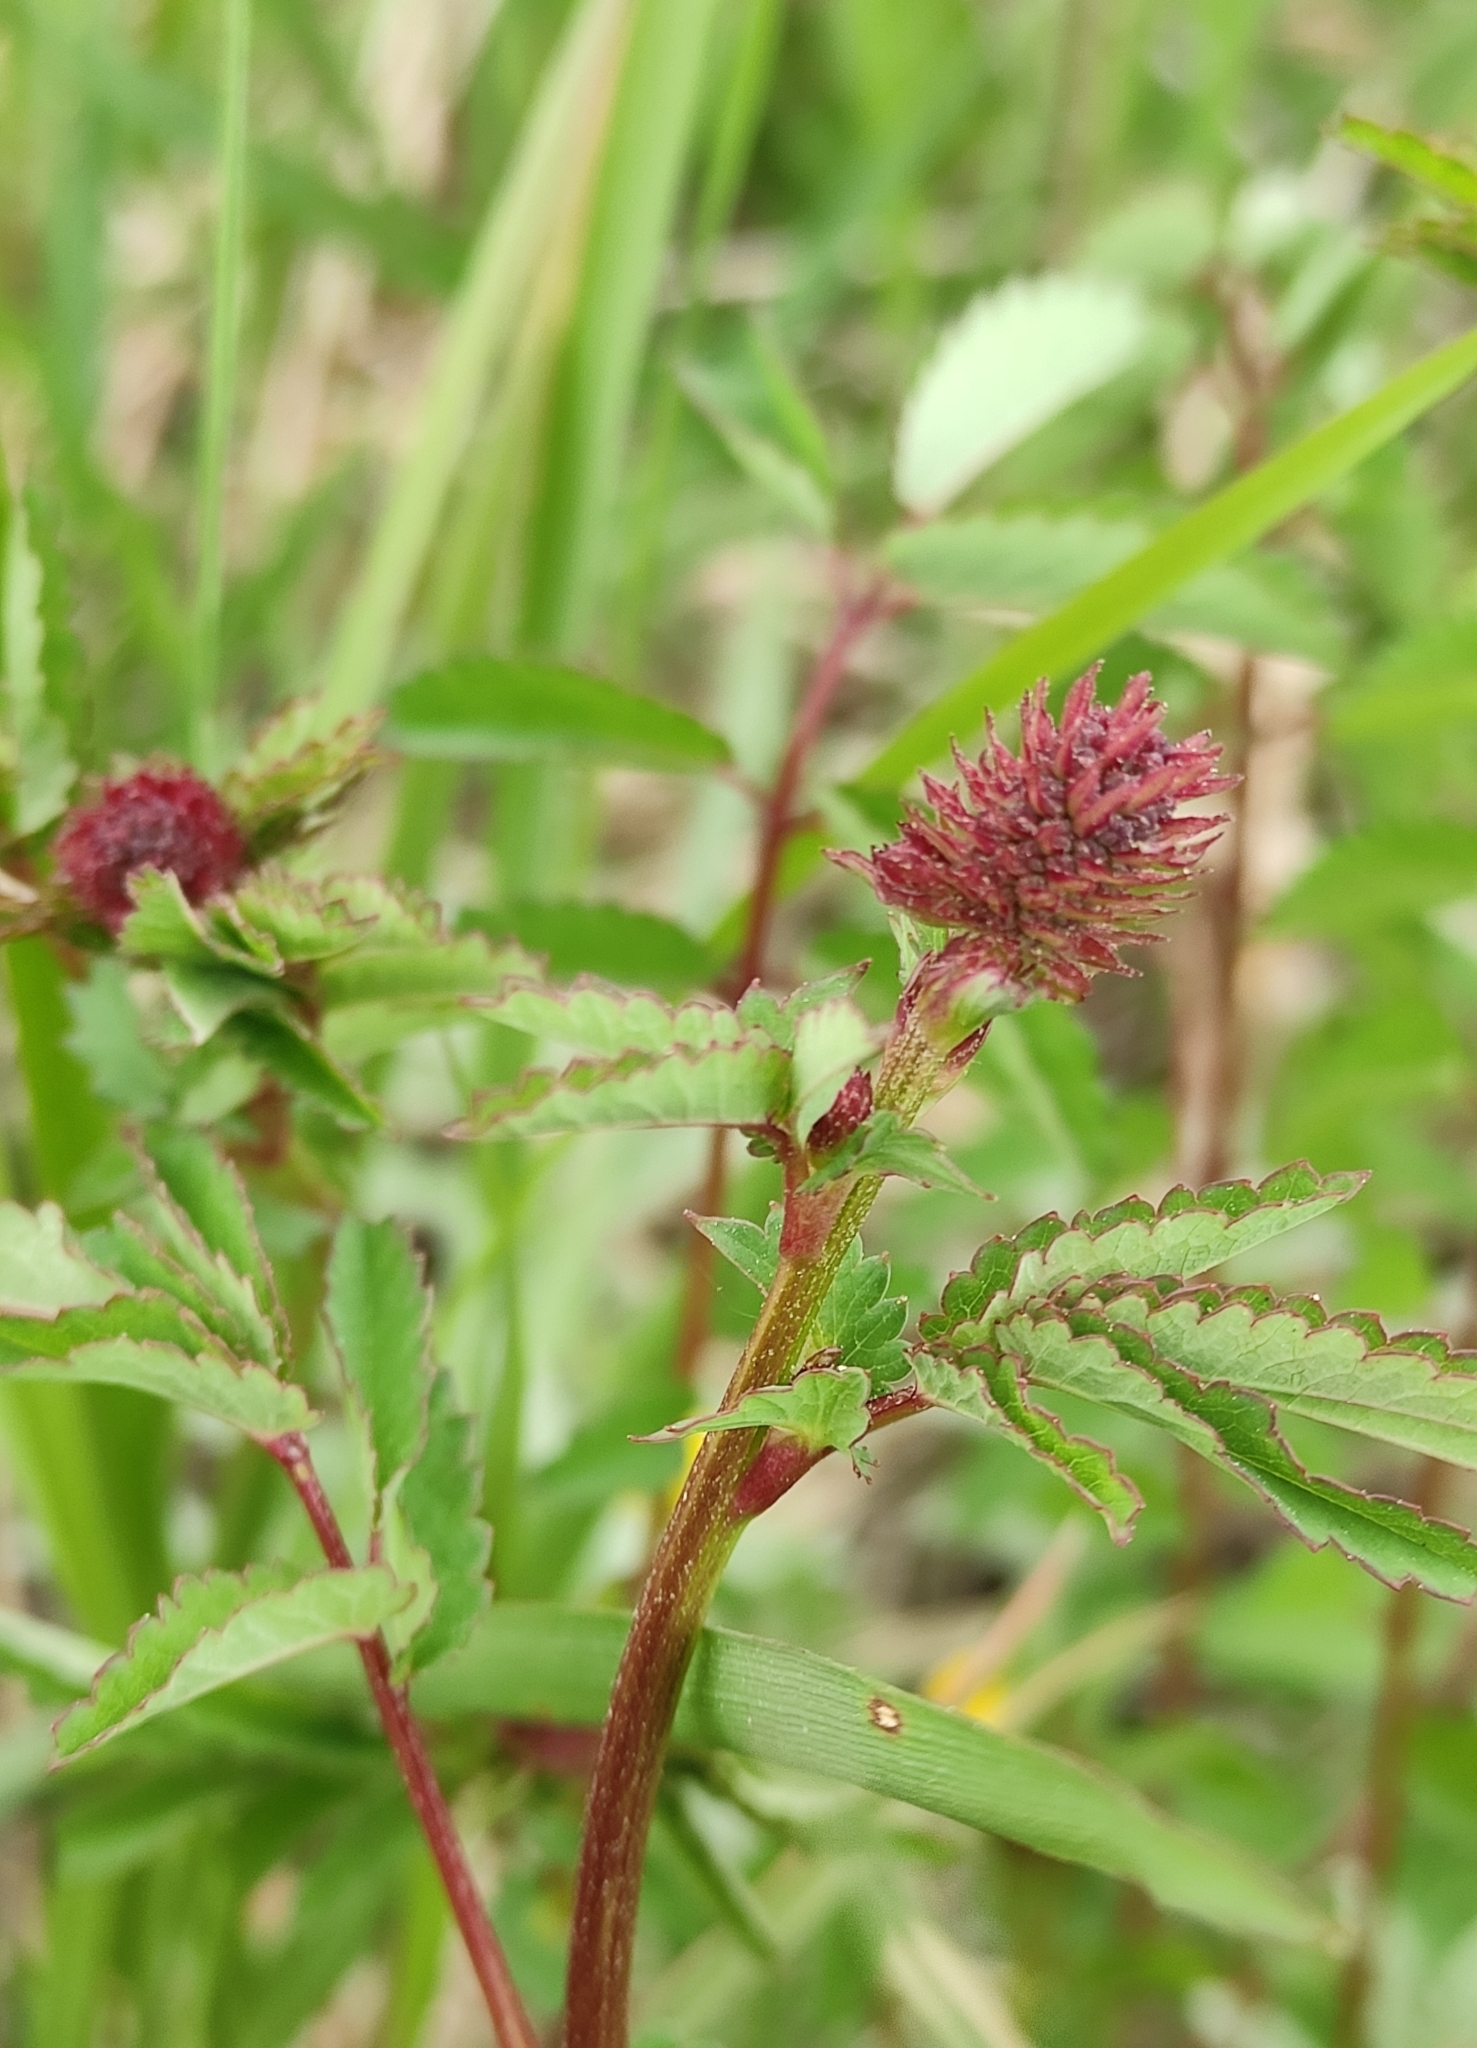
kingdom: Plantae
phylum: Tracheophyta
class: Magnoliopsida
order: Rosales
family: Rosaceae
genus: Sanguisorba
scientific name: Sanguisorba officinalis
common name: Great burnet
